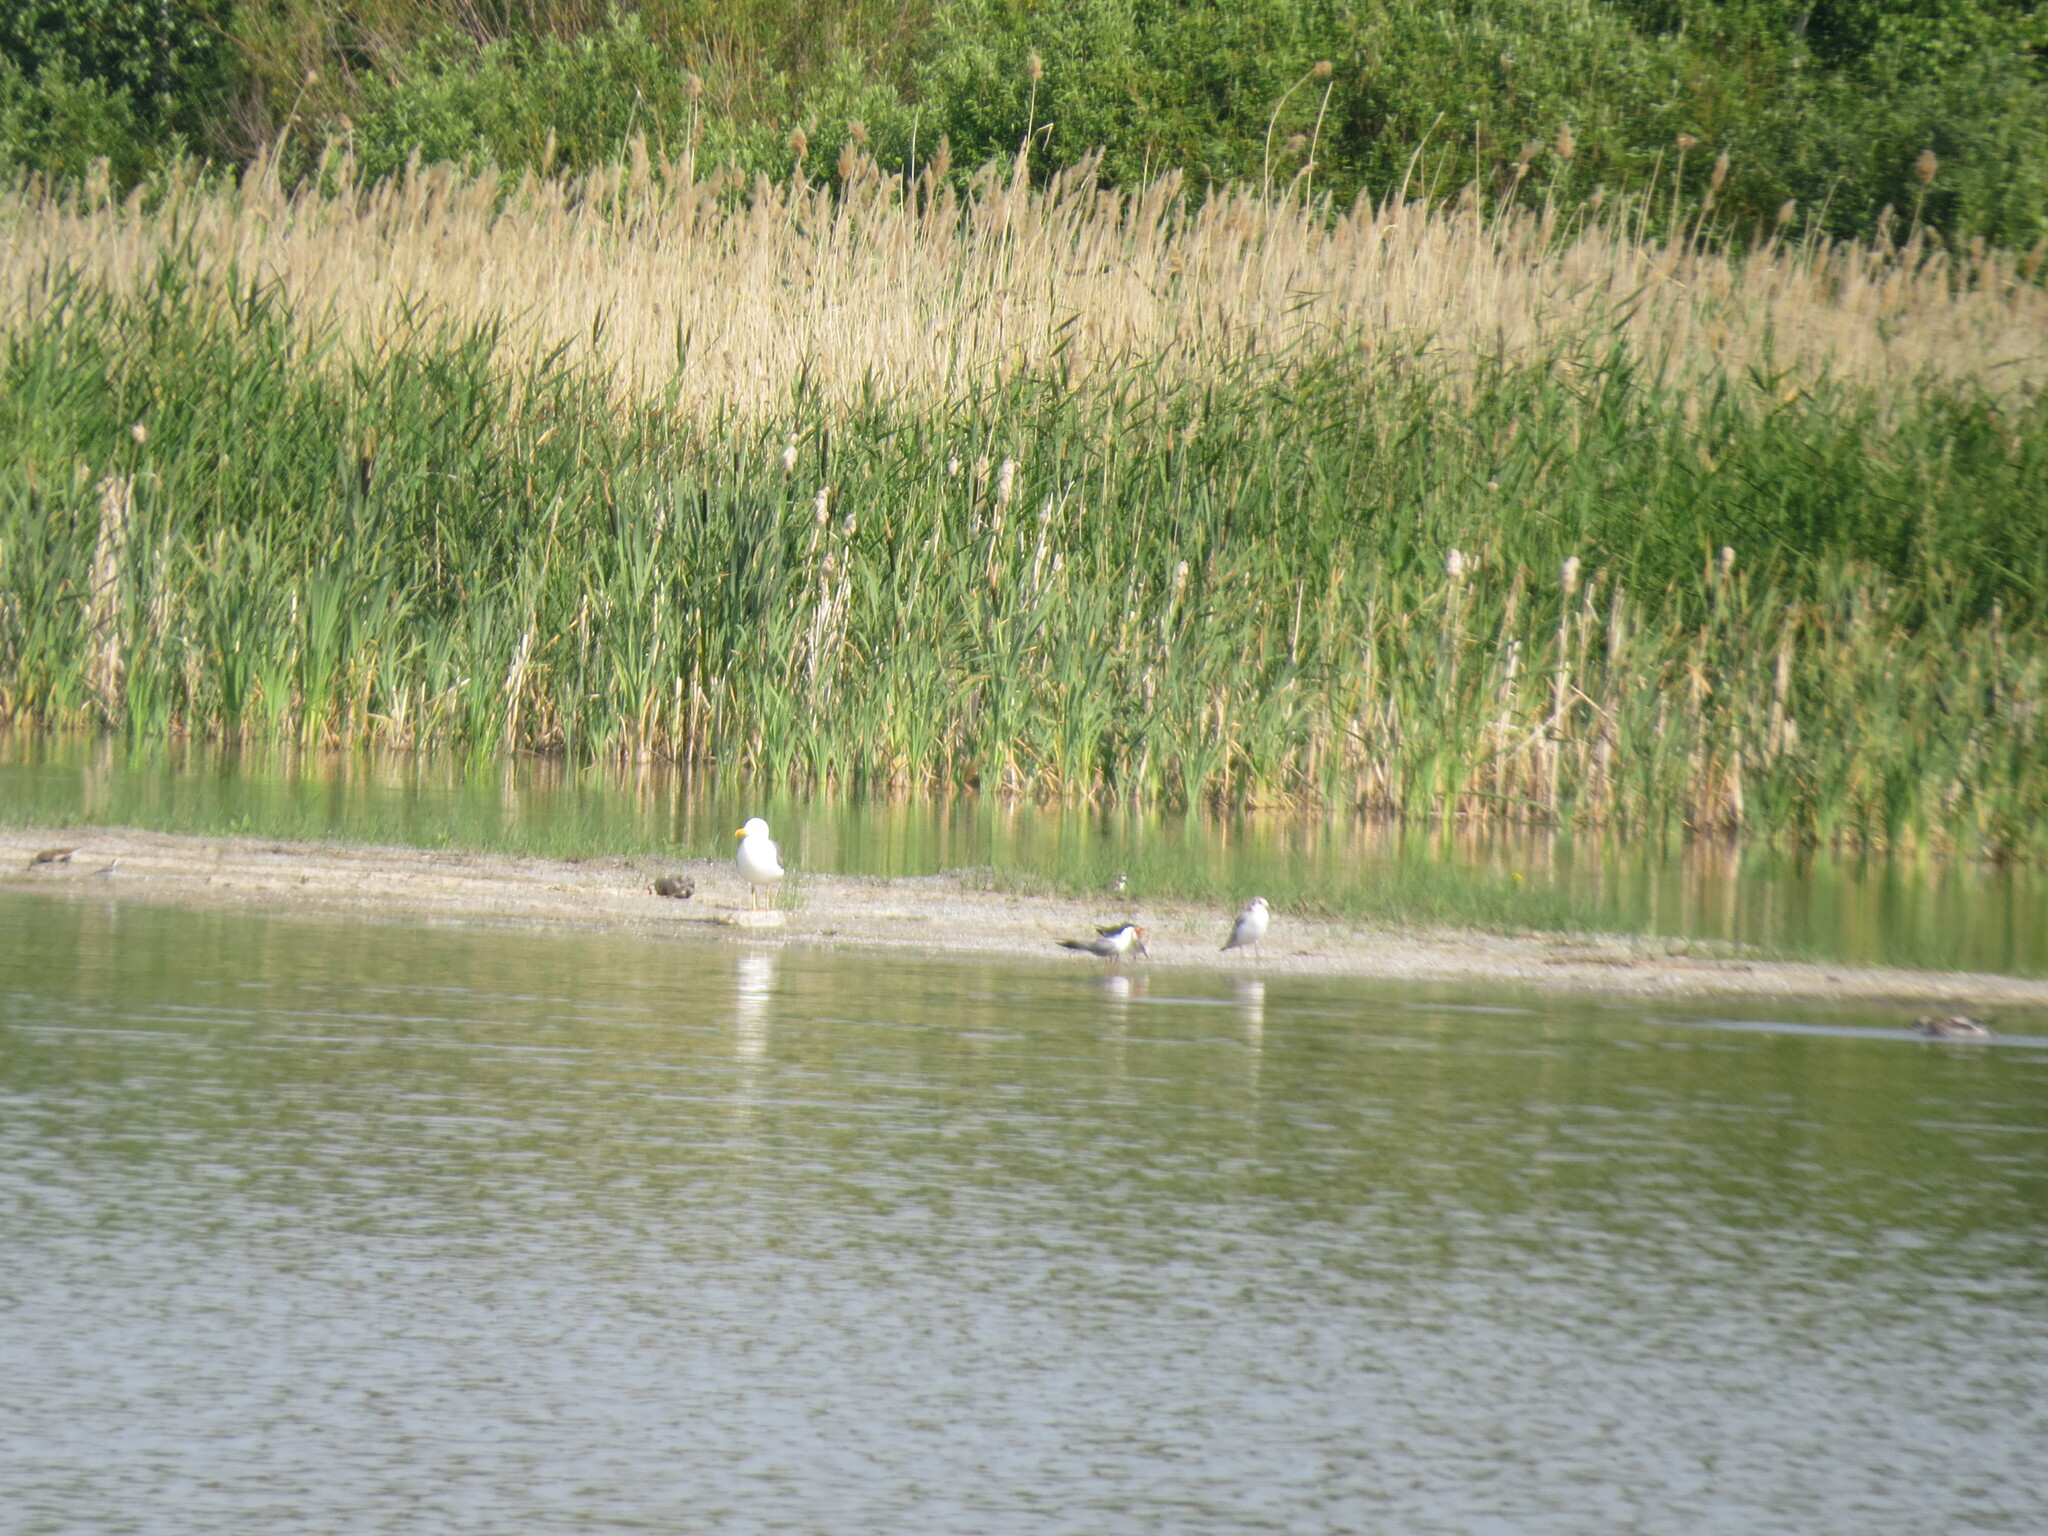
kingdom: Animalia
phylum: Chordata
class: Aves
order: Charadriiformes
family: Laridae
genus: Larus
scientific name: Larus fuscus
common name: Lesser black-backed gull
